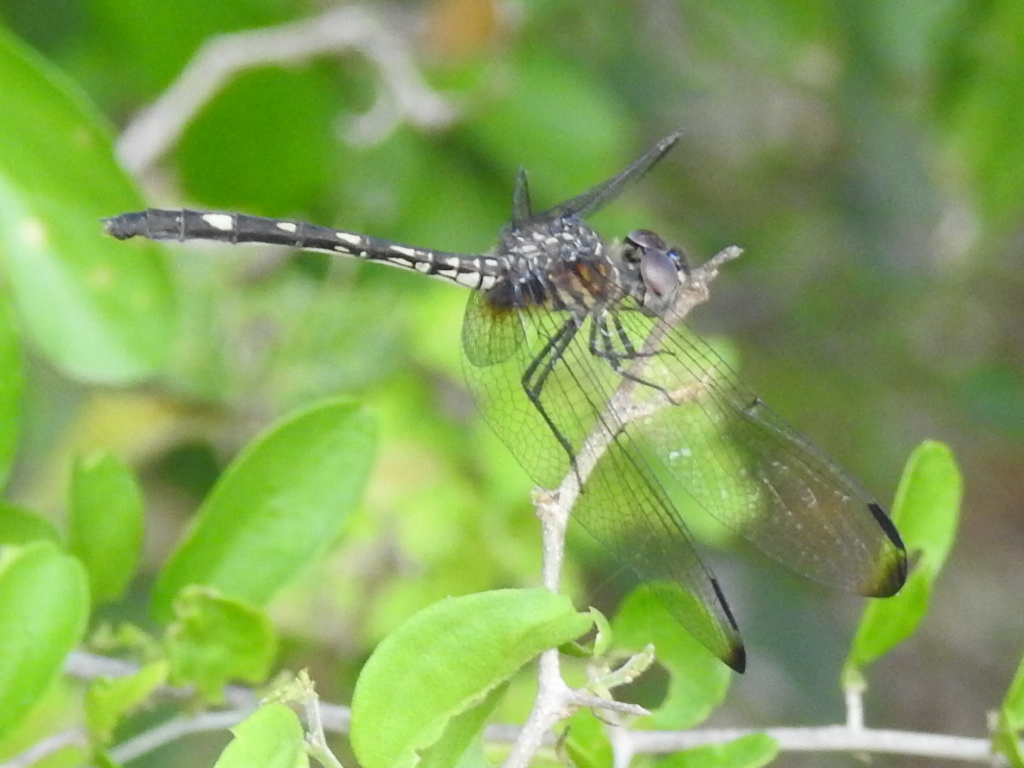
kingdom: Animalia
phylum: Arthropoda
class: Insecta
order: Odonata
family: Libellulidae
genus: Dythemis
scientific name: Dythemis fugax
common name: Checkered setwing
